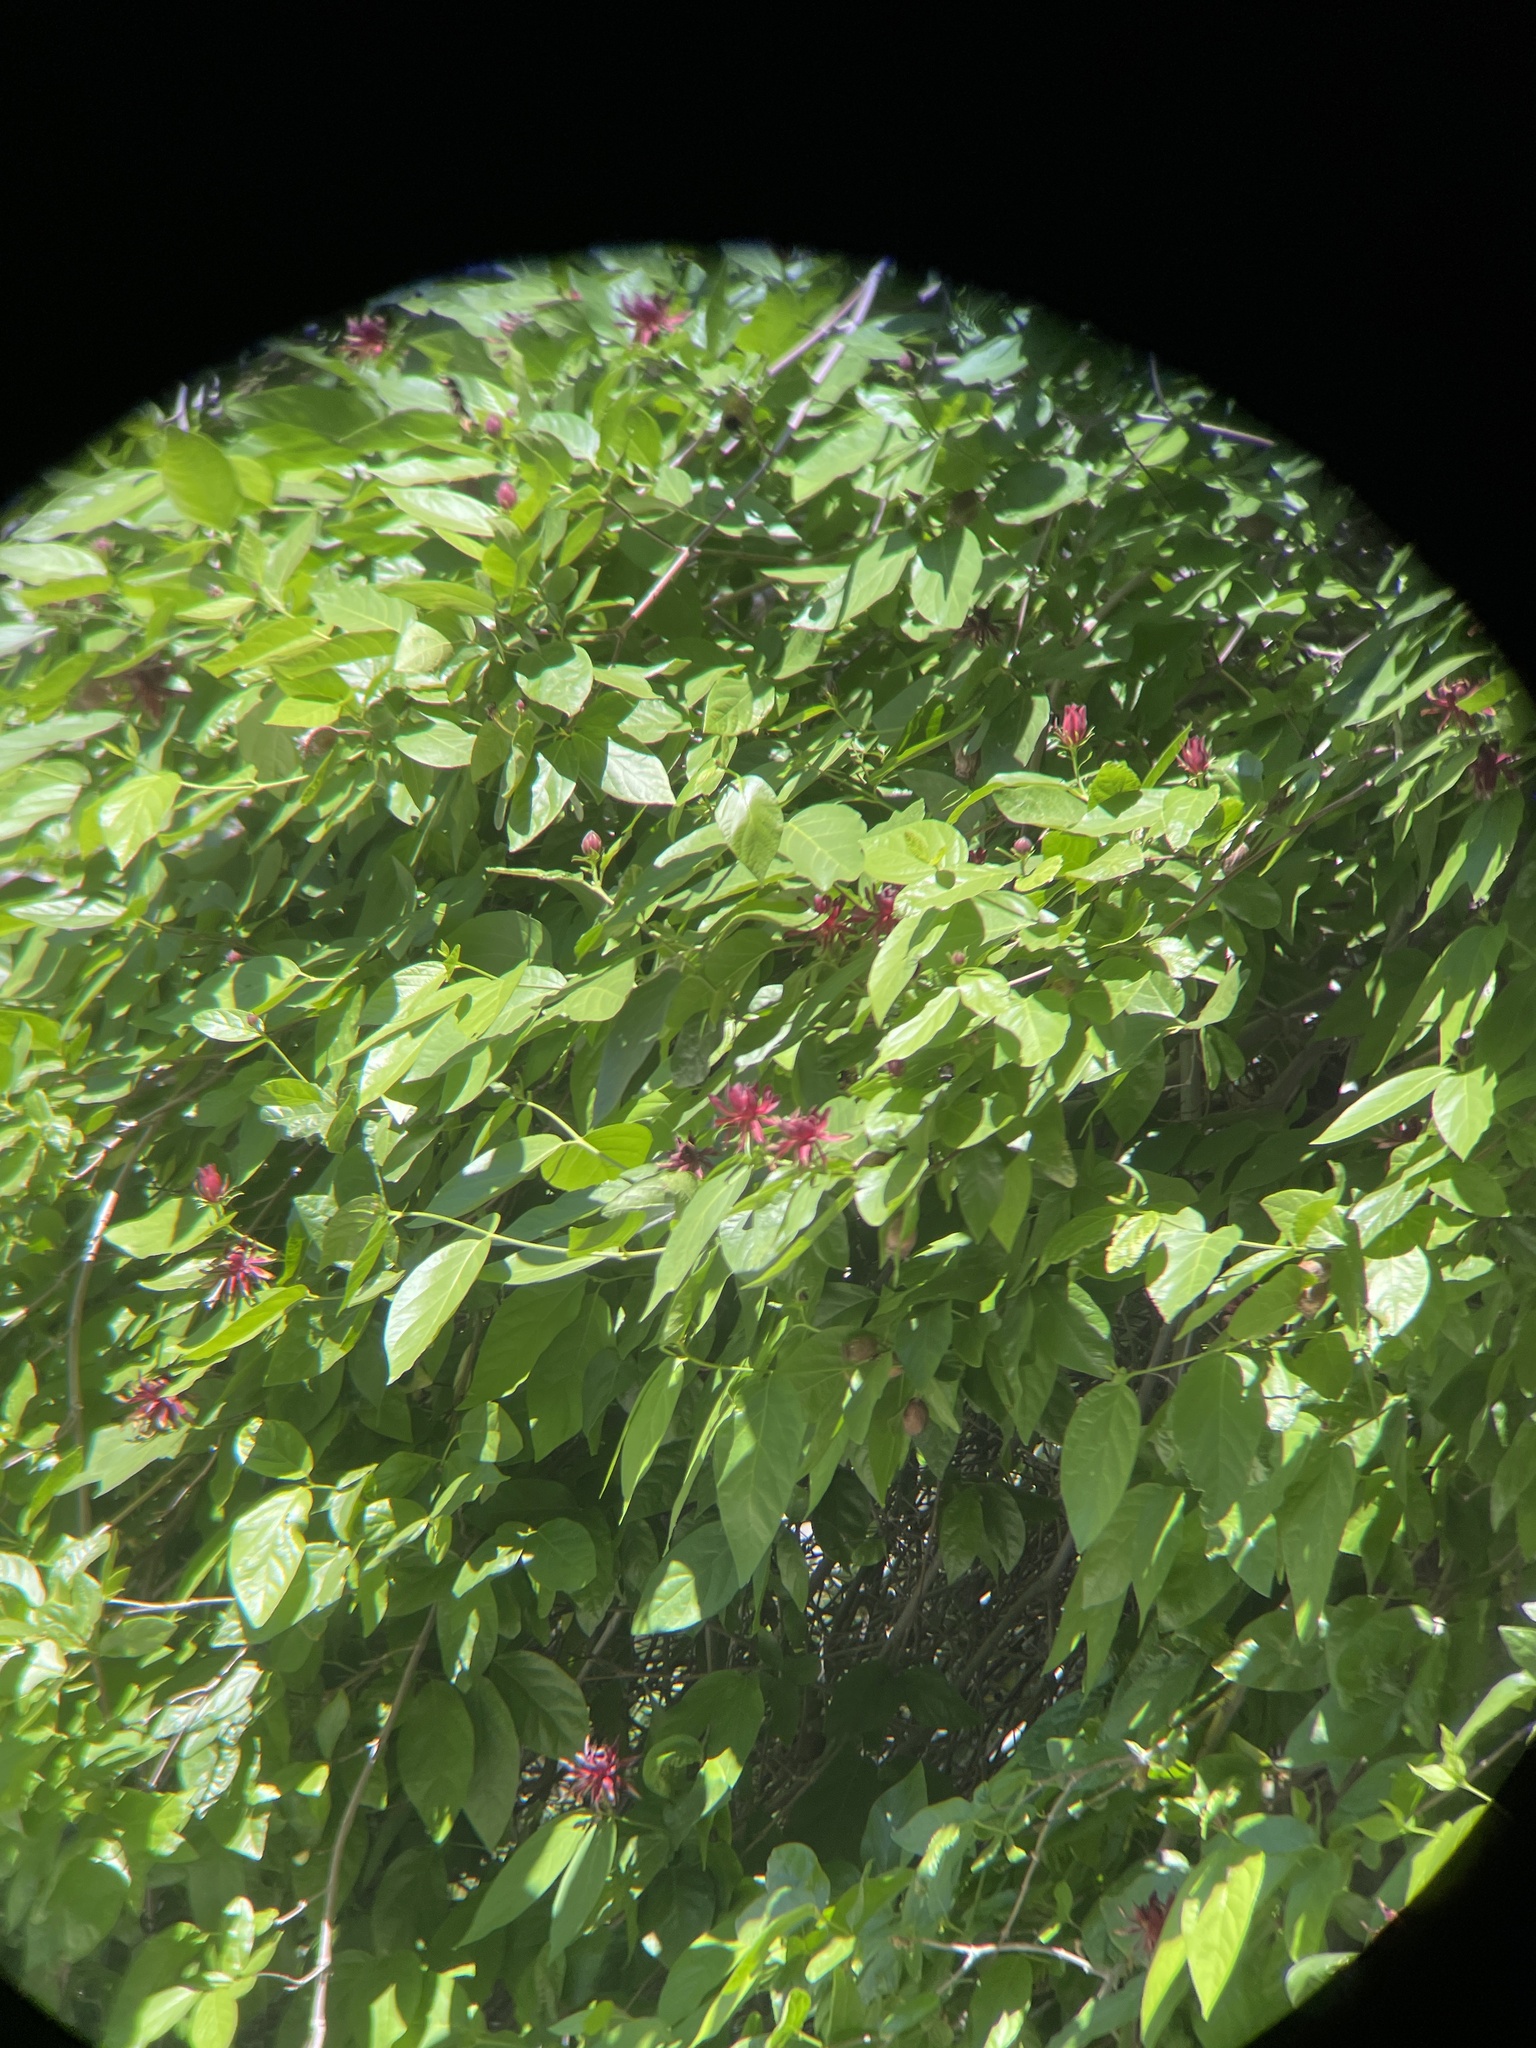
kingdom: Plantae
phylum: Tracheophyta
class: Magnoliopsida
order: Laurales
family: Calycanthaceae
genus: Calycanthus
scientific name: Calycanthus occidentalis
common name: California spicebush
